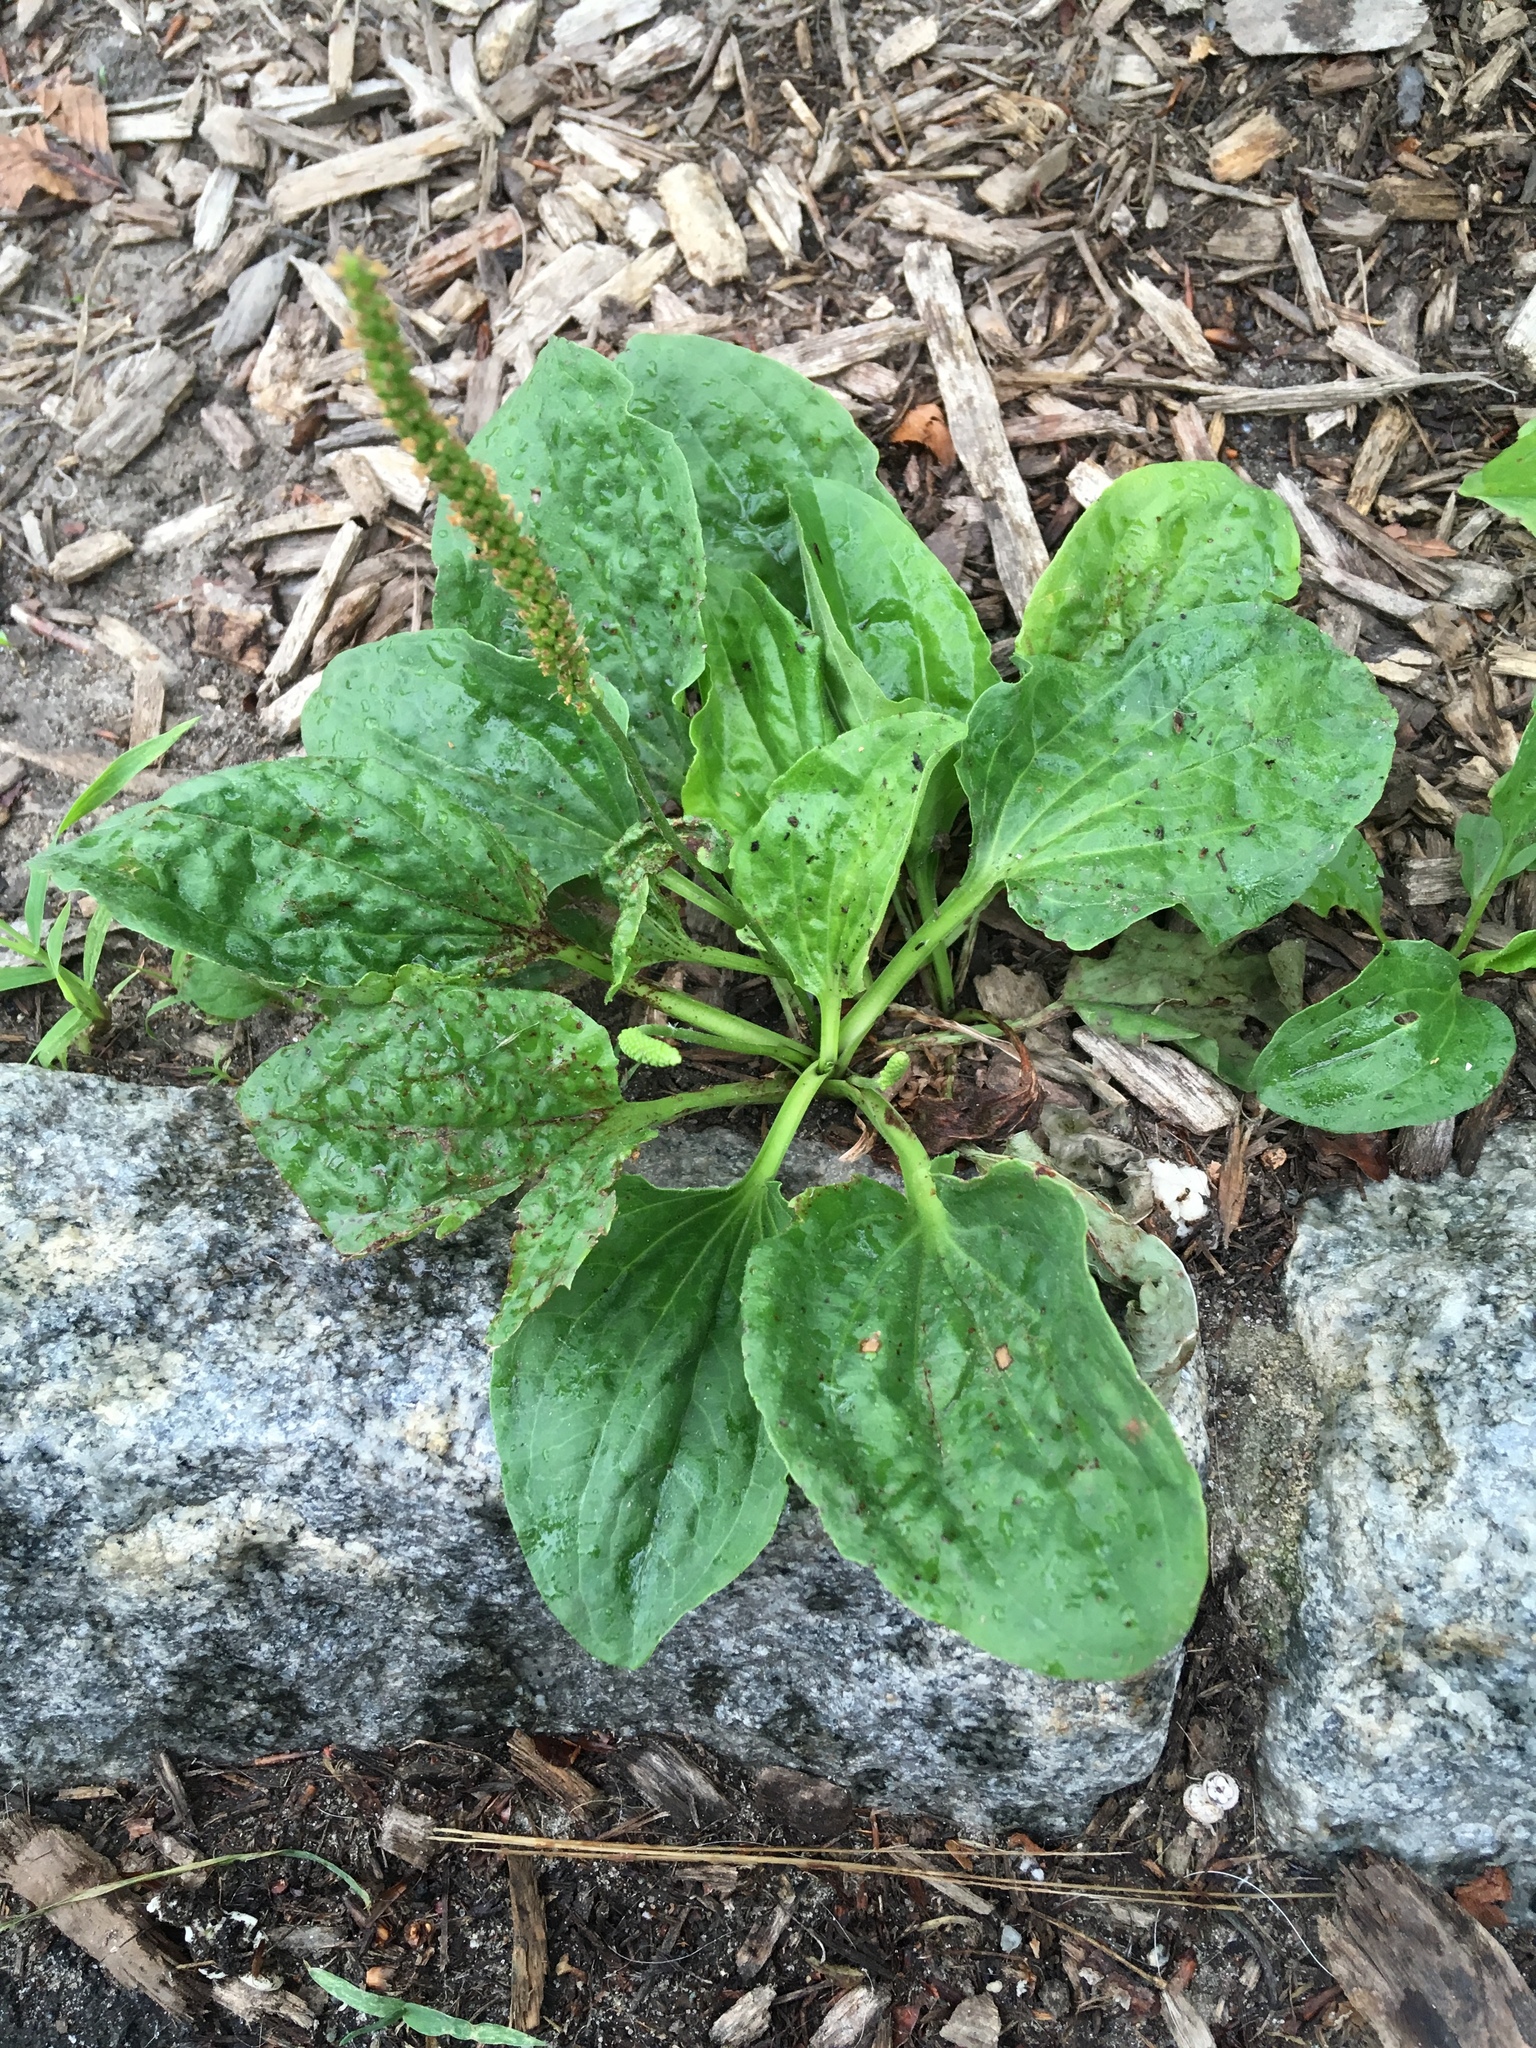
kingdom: Plantae
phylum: Tracheophyta
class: Magnoliopsida
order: Lamiales
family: Plantaginaceae
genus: Plantago
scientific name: Plantago major
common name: Common plantain
